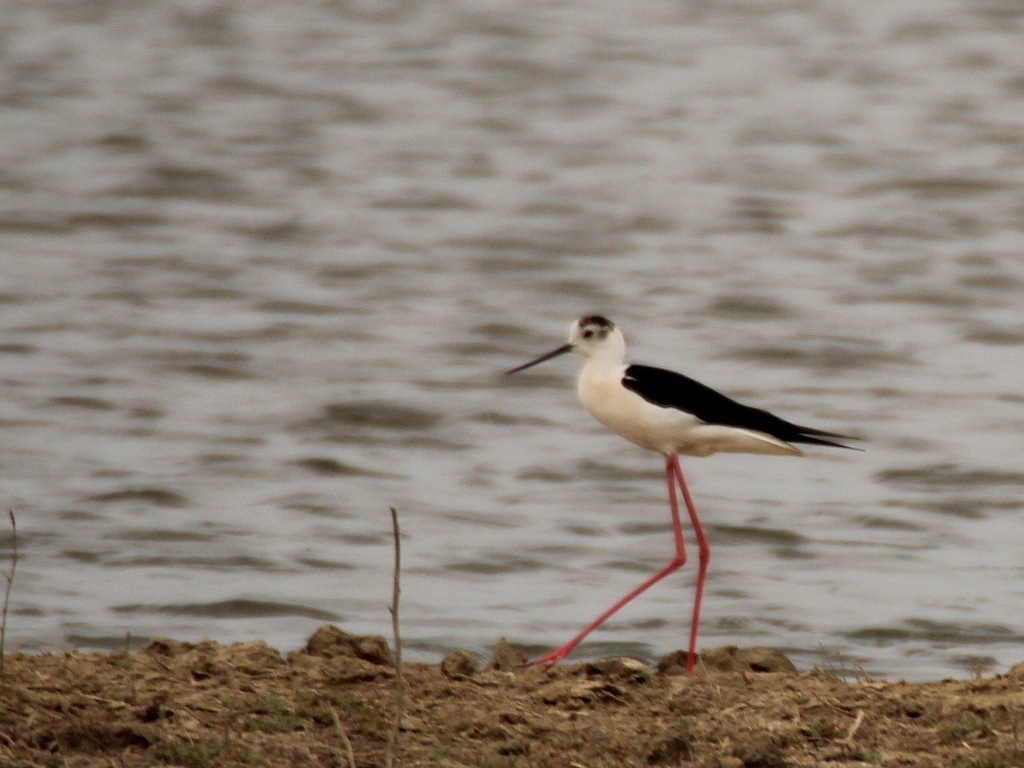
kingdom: Animalia
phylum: Chordata
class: Aves
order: Charadriiformes
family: Recurvirostridae
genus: Himantopus
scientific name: Himantopus himantopus
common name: Black-winged stilt
